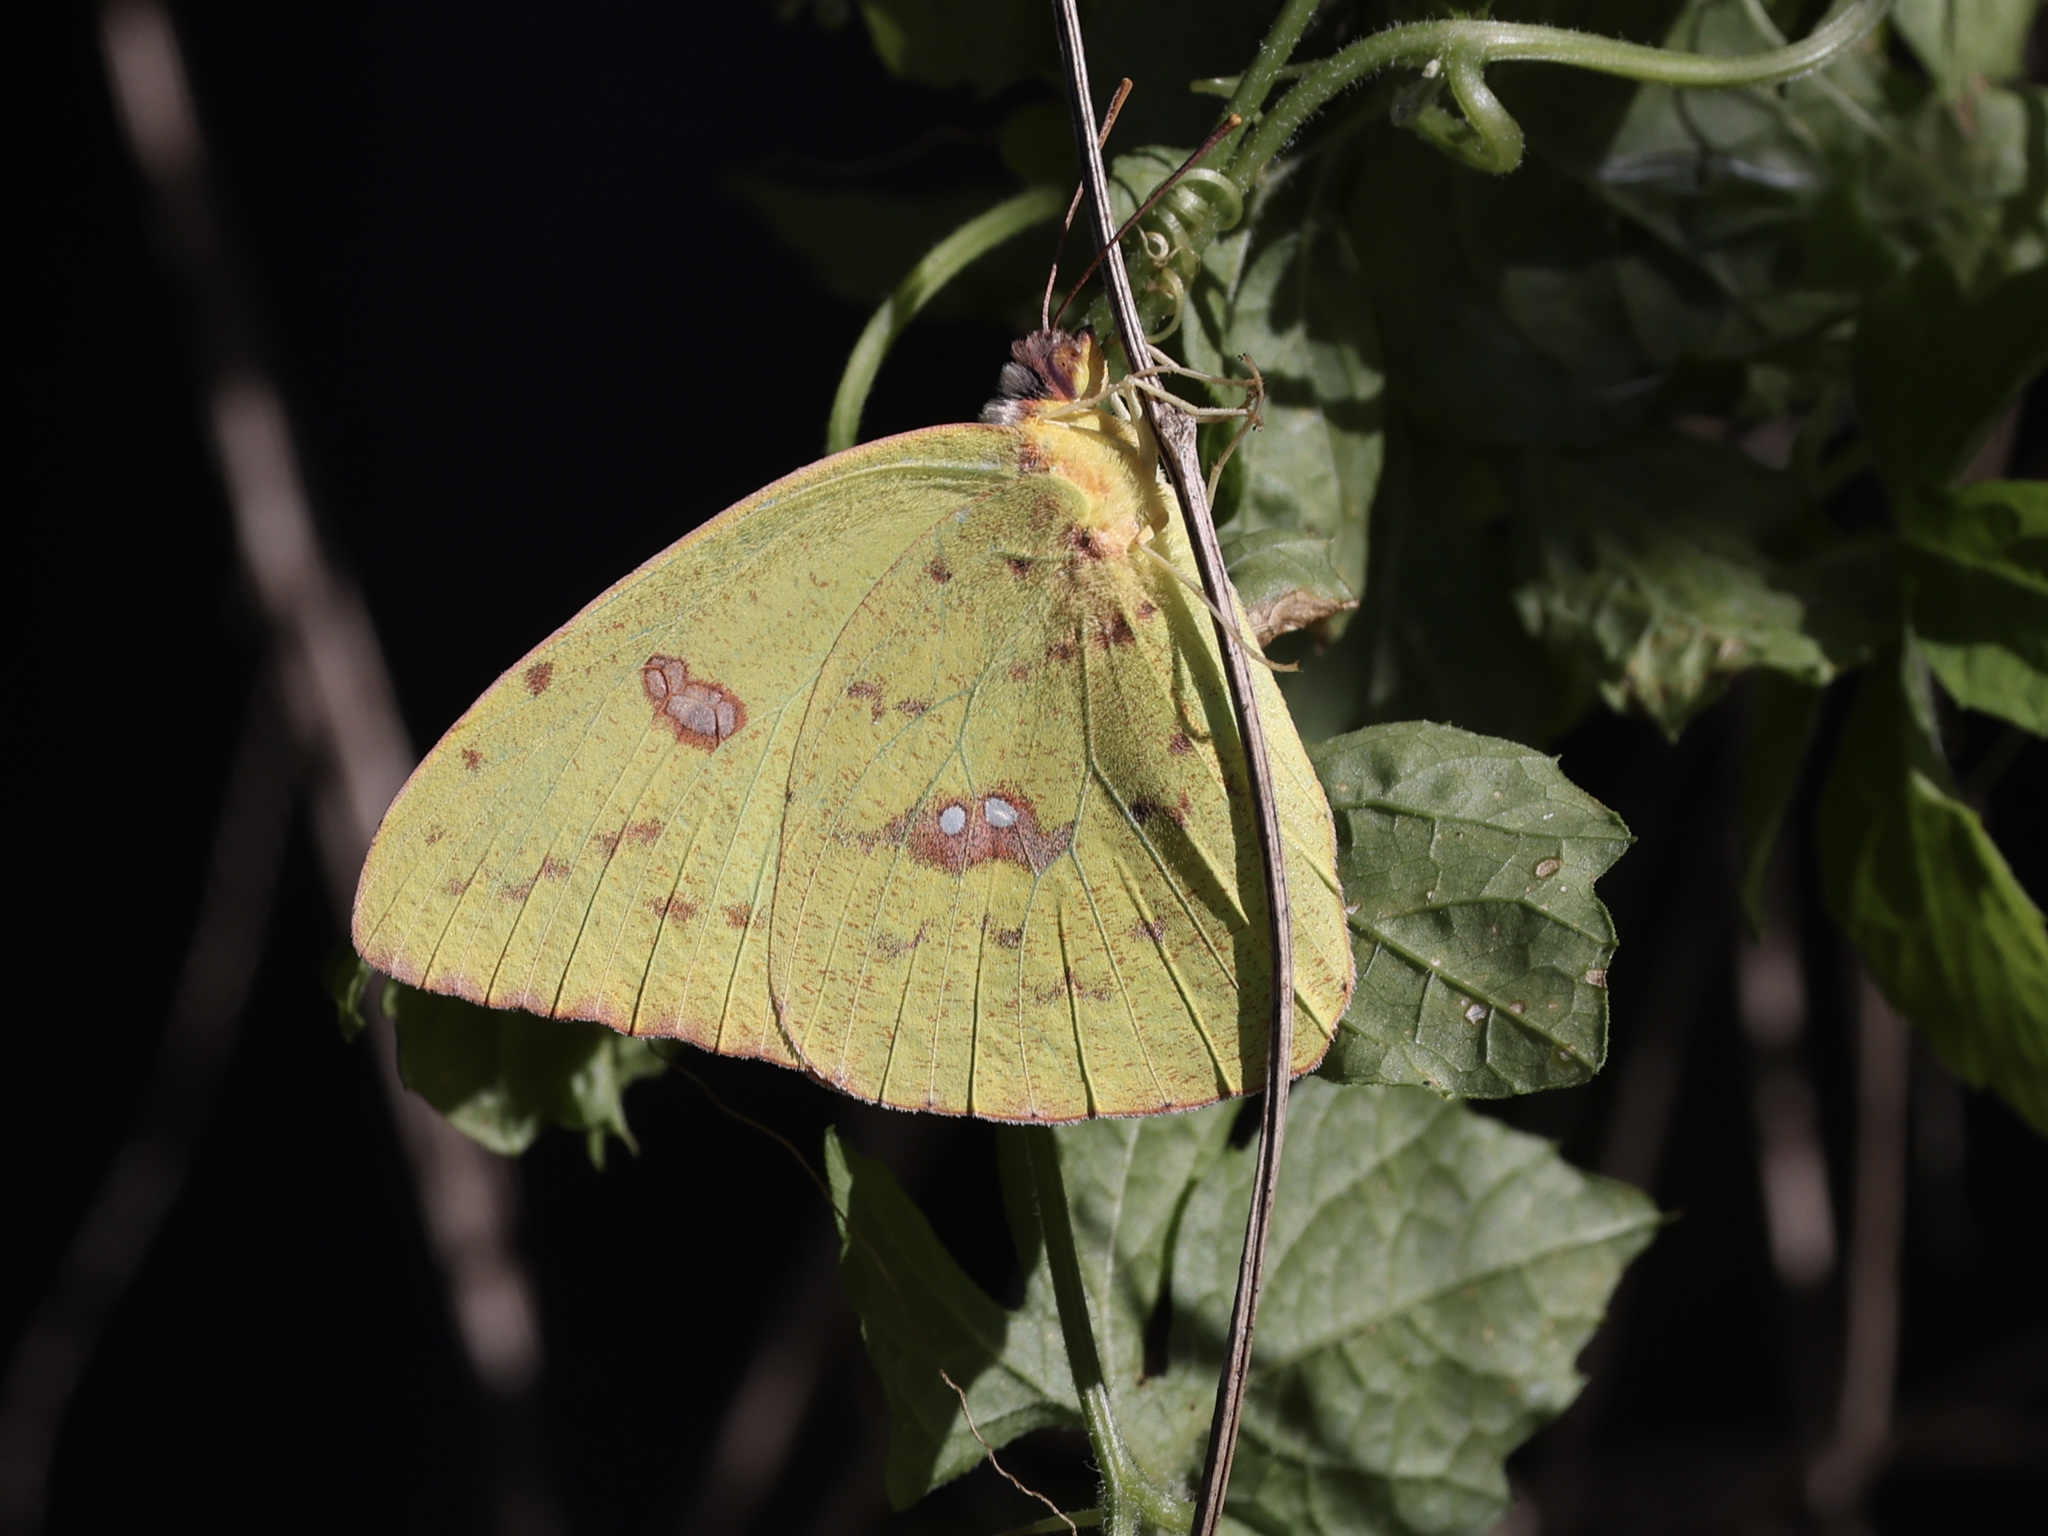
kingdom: Animalia
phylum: Arthropoda
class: Insecta
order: Lepidoptera
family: Pieridae
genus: Phoebis
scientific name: Phoebis sennae
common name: Cloudless sulphur
